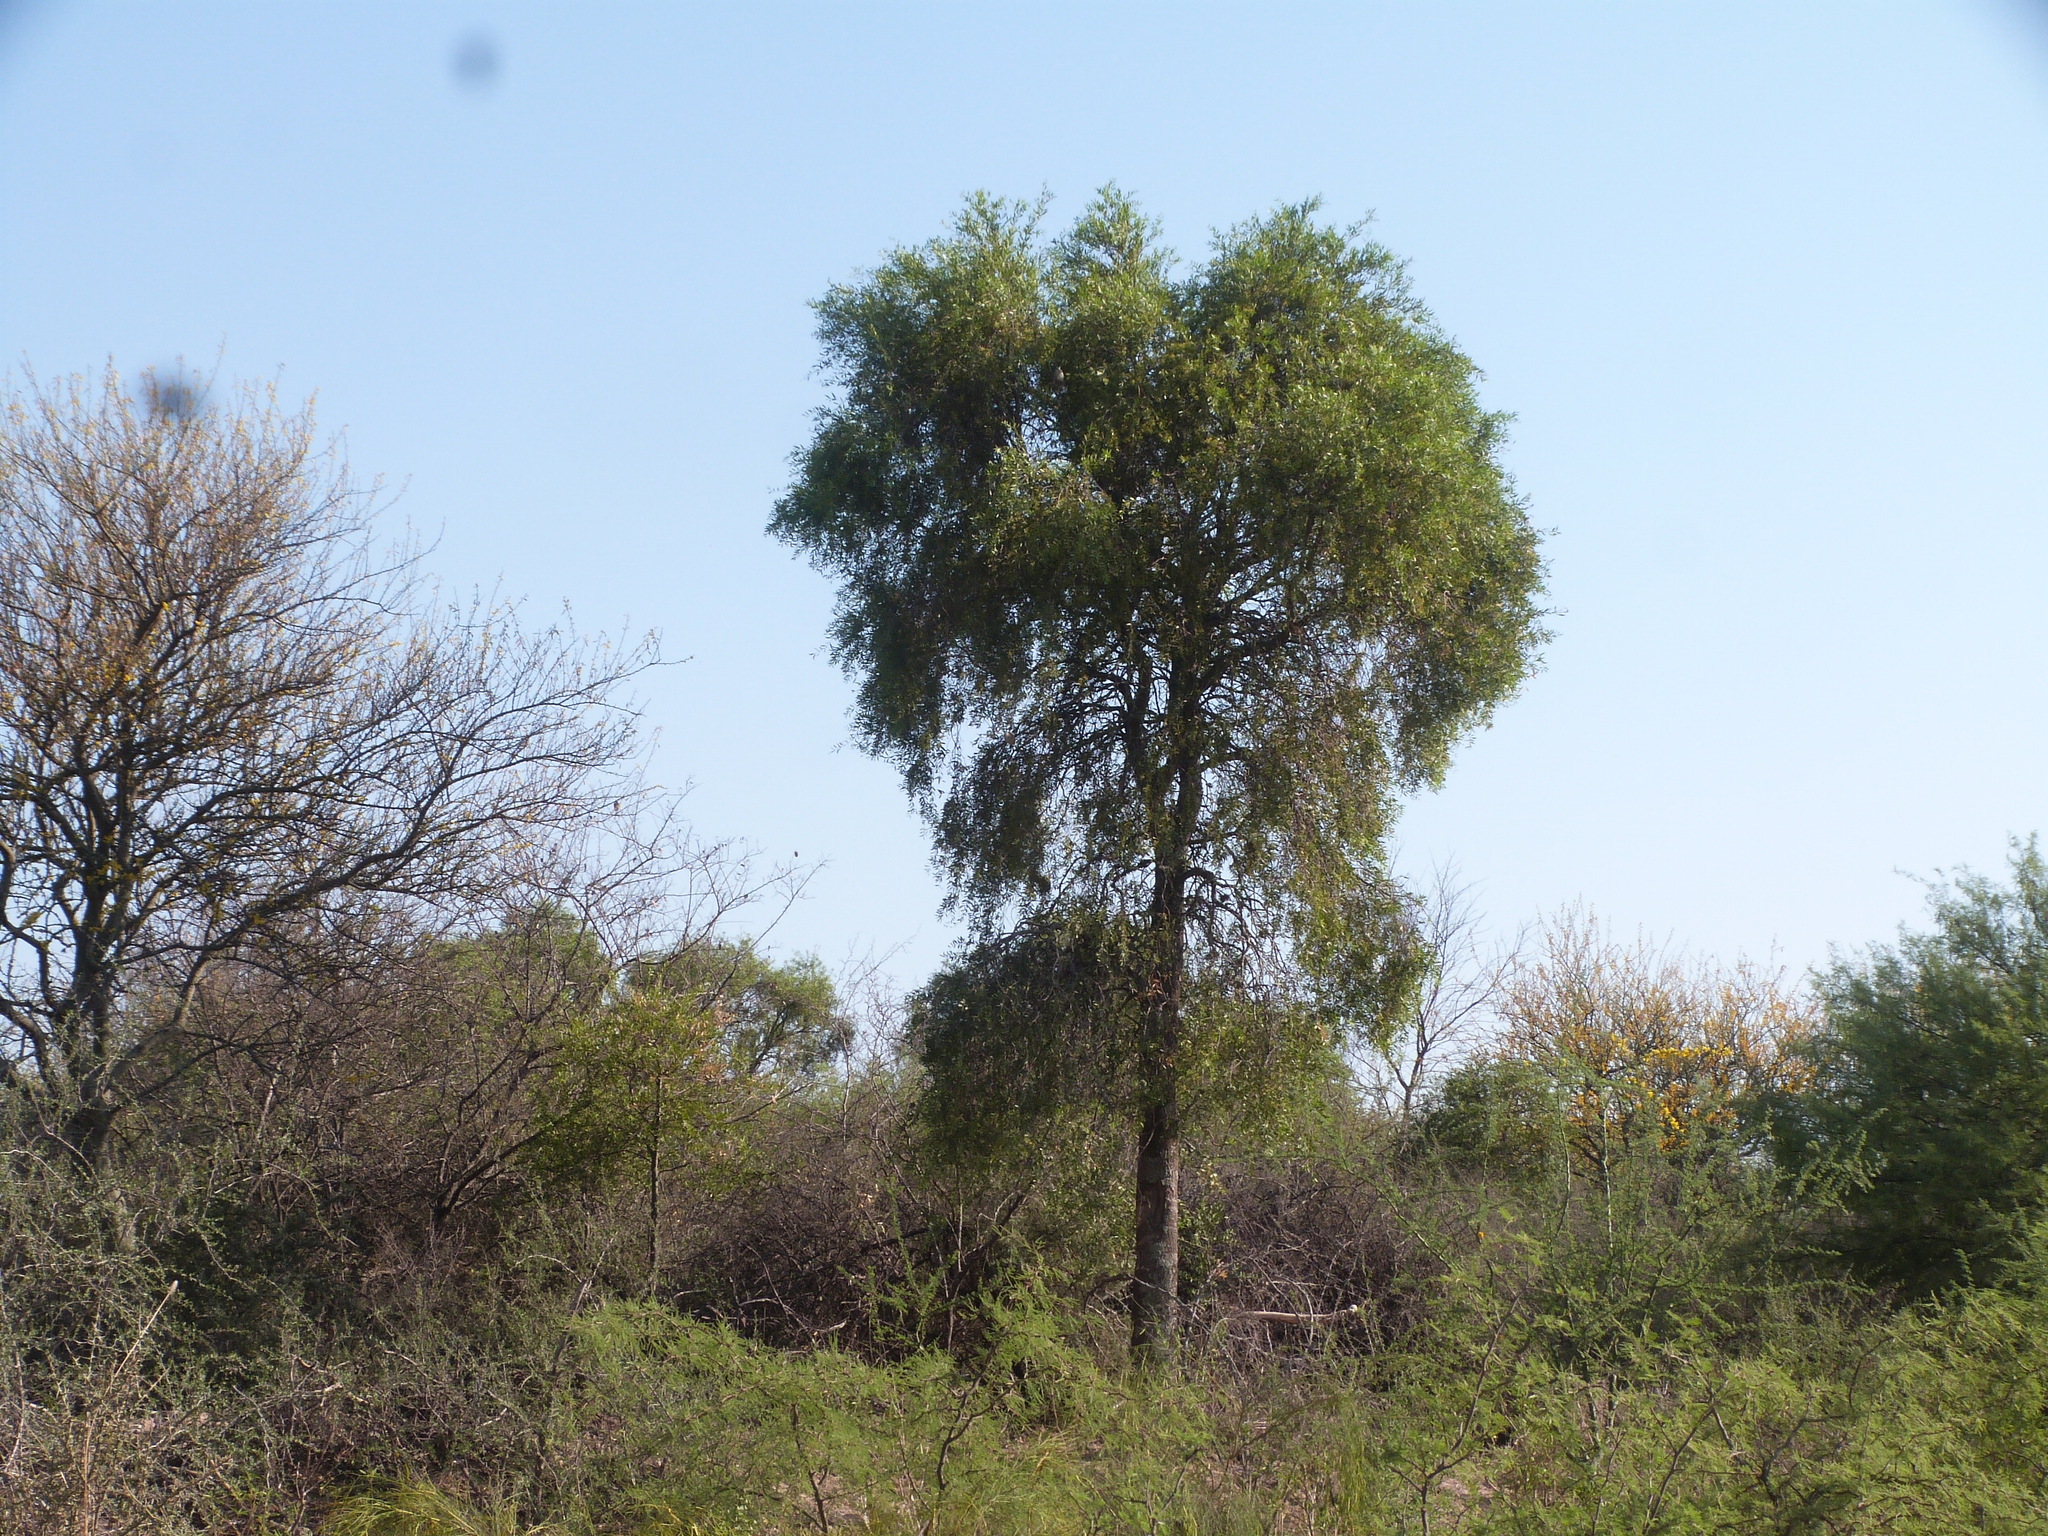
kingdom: Plantae
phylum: Tracheophyta
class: Magnoliopsida
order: Gentianales
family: Apocynaceae
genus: Aspidosperma
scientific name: Aspidosperma quebracho-blanco
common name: White quebracho
